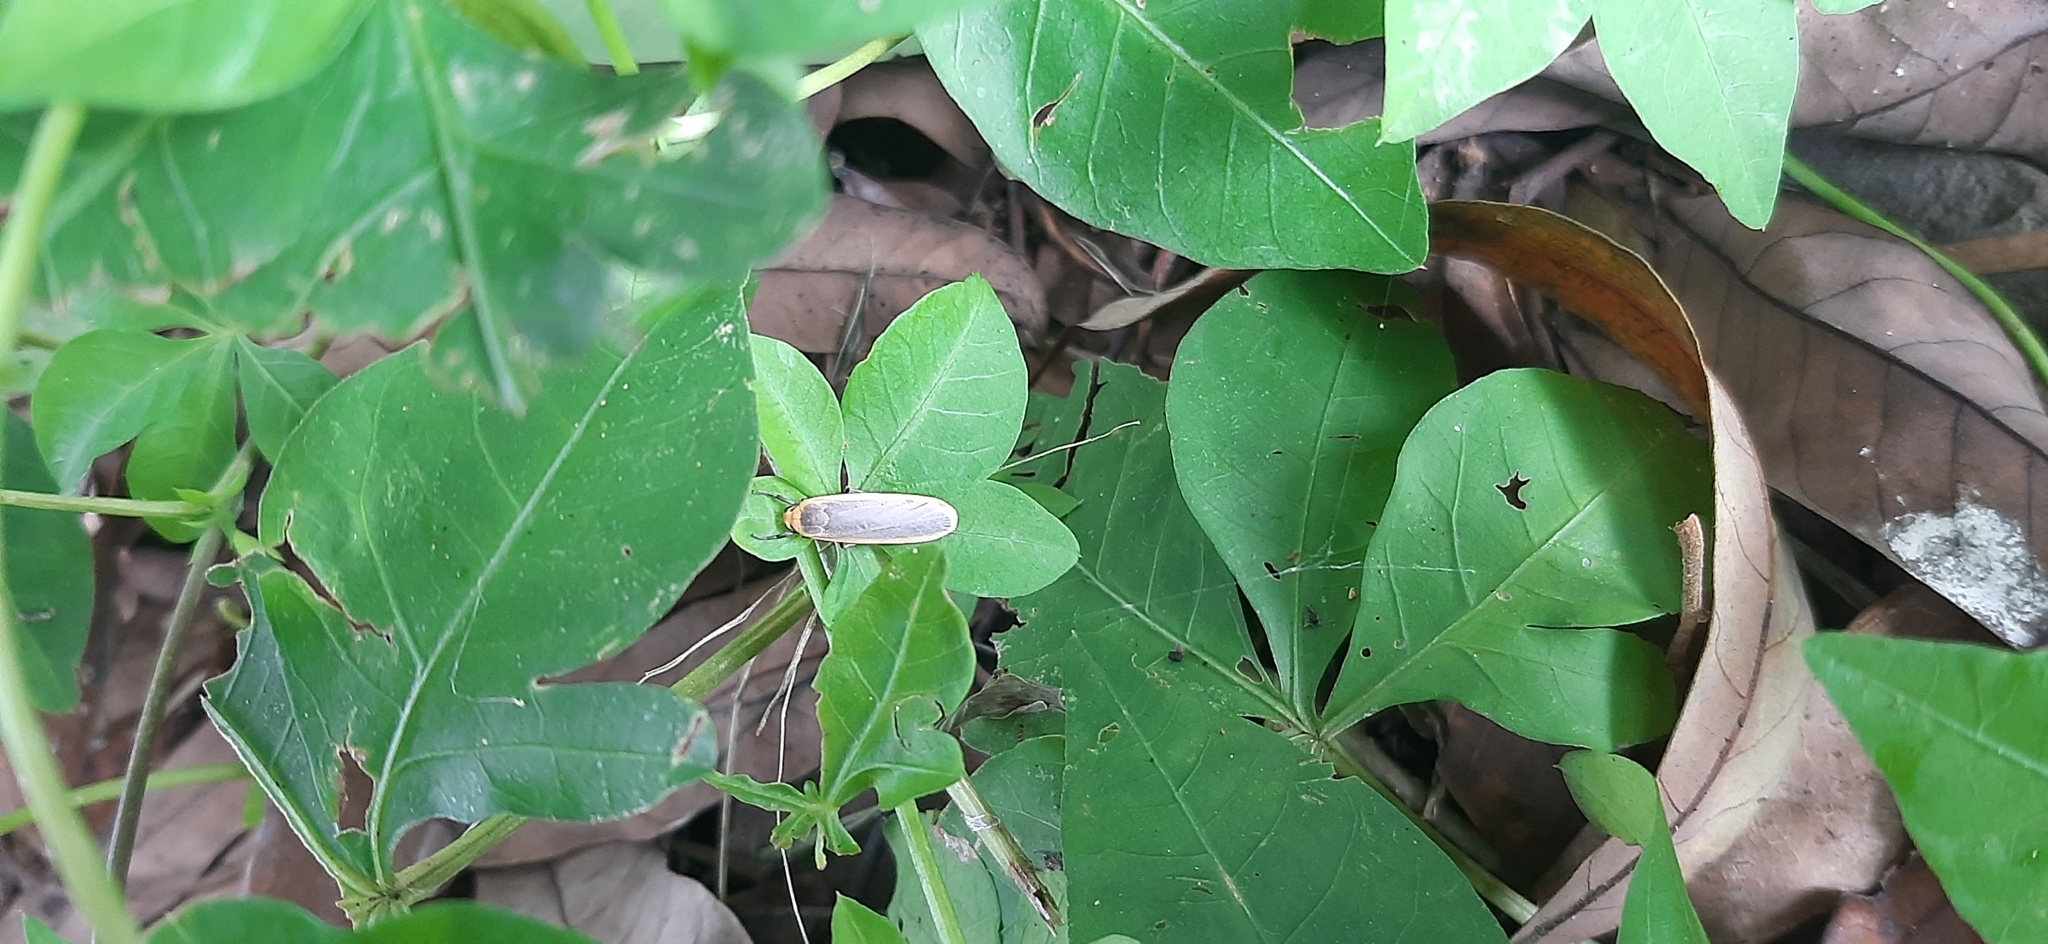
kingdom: Animalia
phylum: Arthropoda
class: Insecta
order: Lepidoptera
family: Erebidae
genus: Brunia
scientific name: Brunia antica
